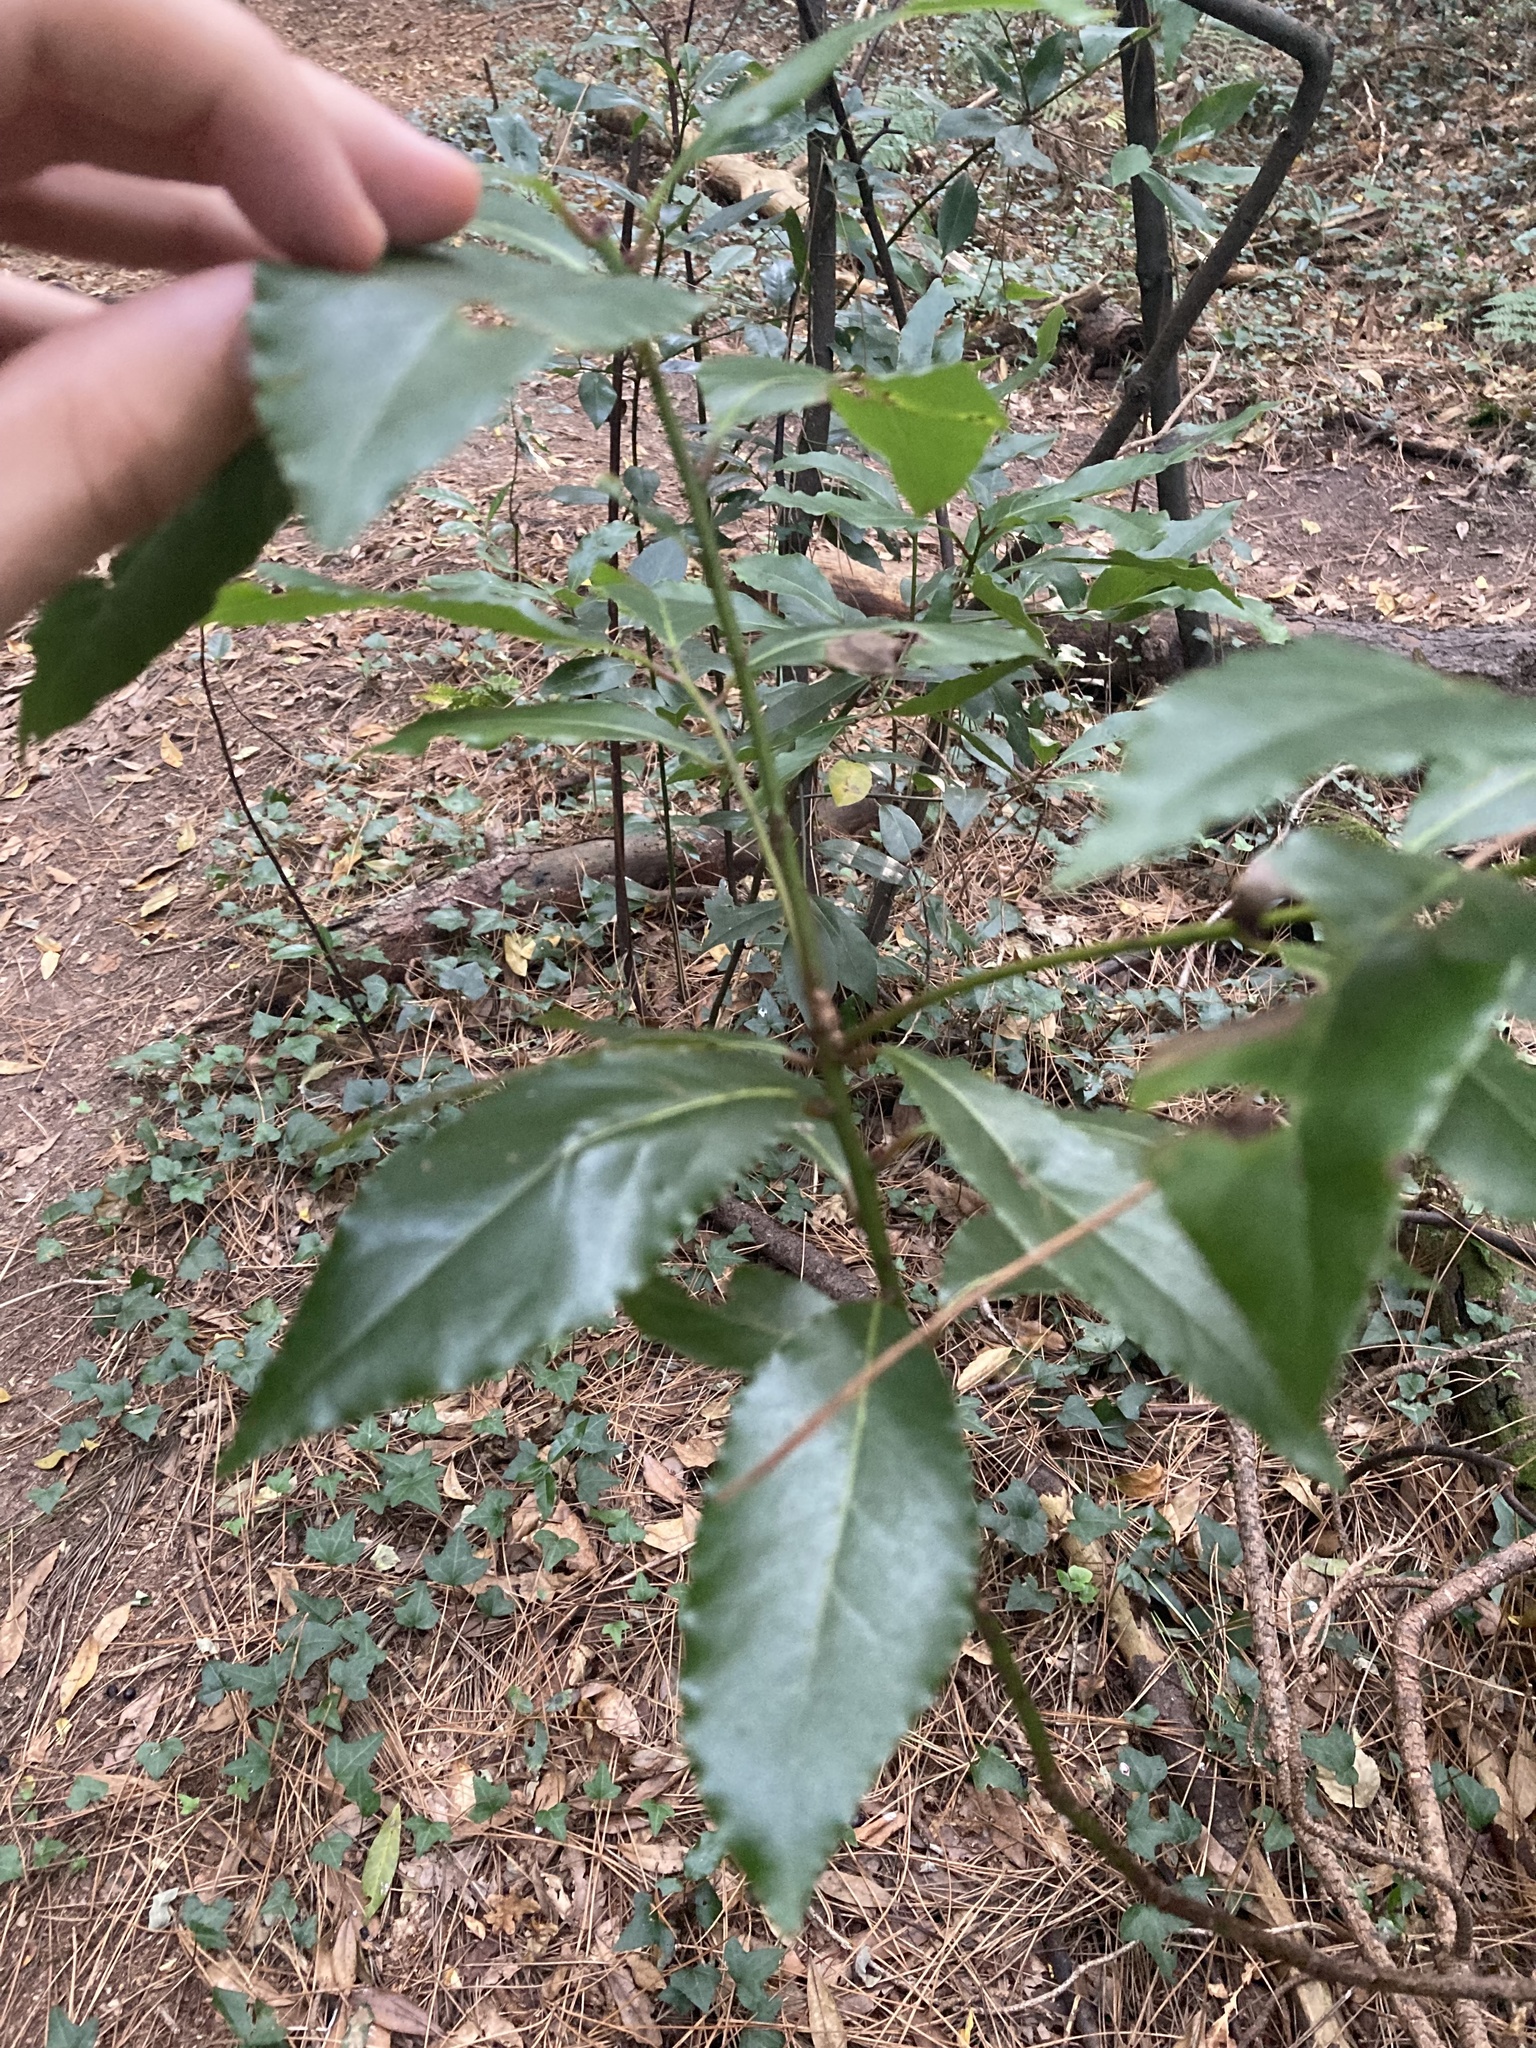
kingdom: Plantae
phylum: Tracheophyta
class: Magnoliopsida
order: Laurales
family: Lauraceae
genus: Laurus
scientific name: Laurus nobilis
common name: Bay
